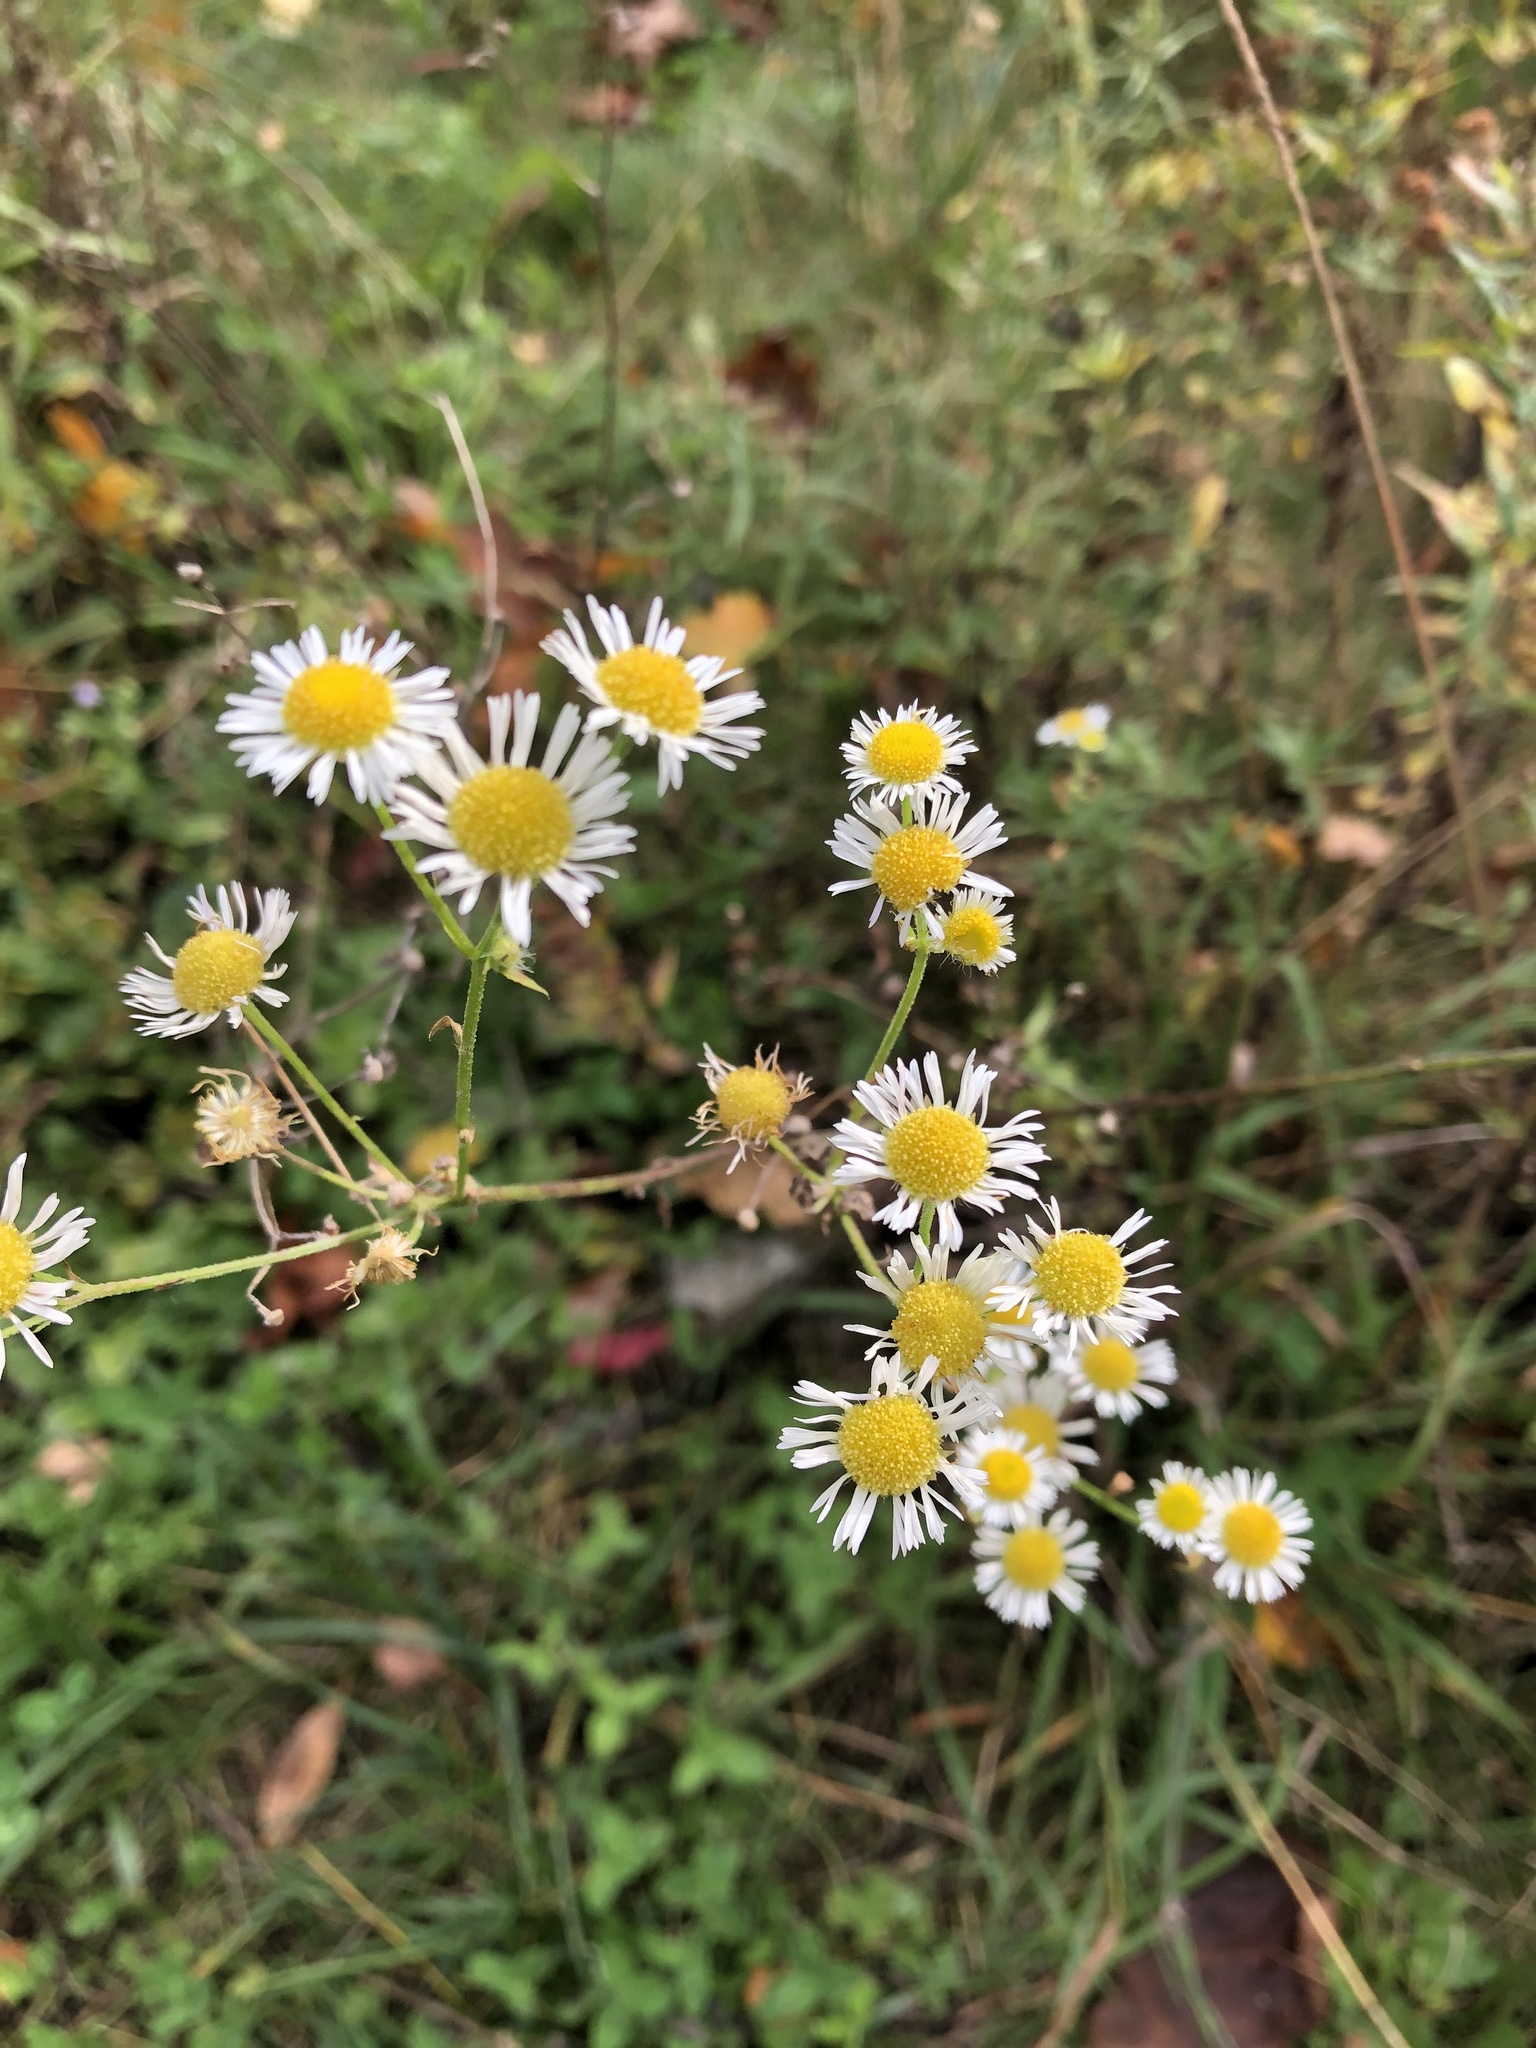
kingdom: Plantae
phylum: Tracheophyta
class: Magnoliopsida
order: Asterales
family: Asteraceae
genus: Erigeron
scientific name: Erigeron strigosus
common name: Common eastern fleabane
